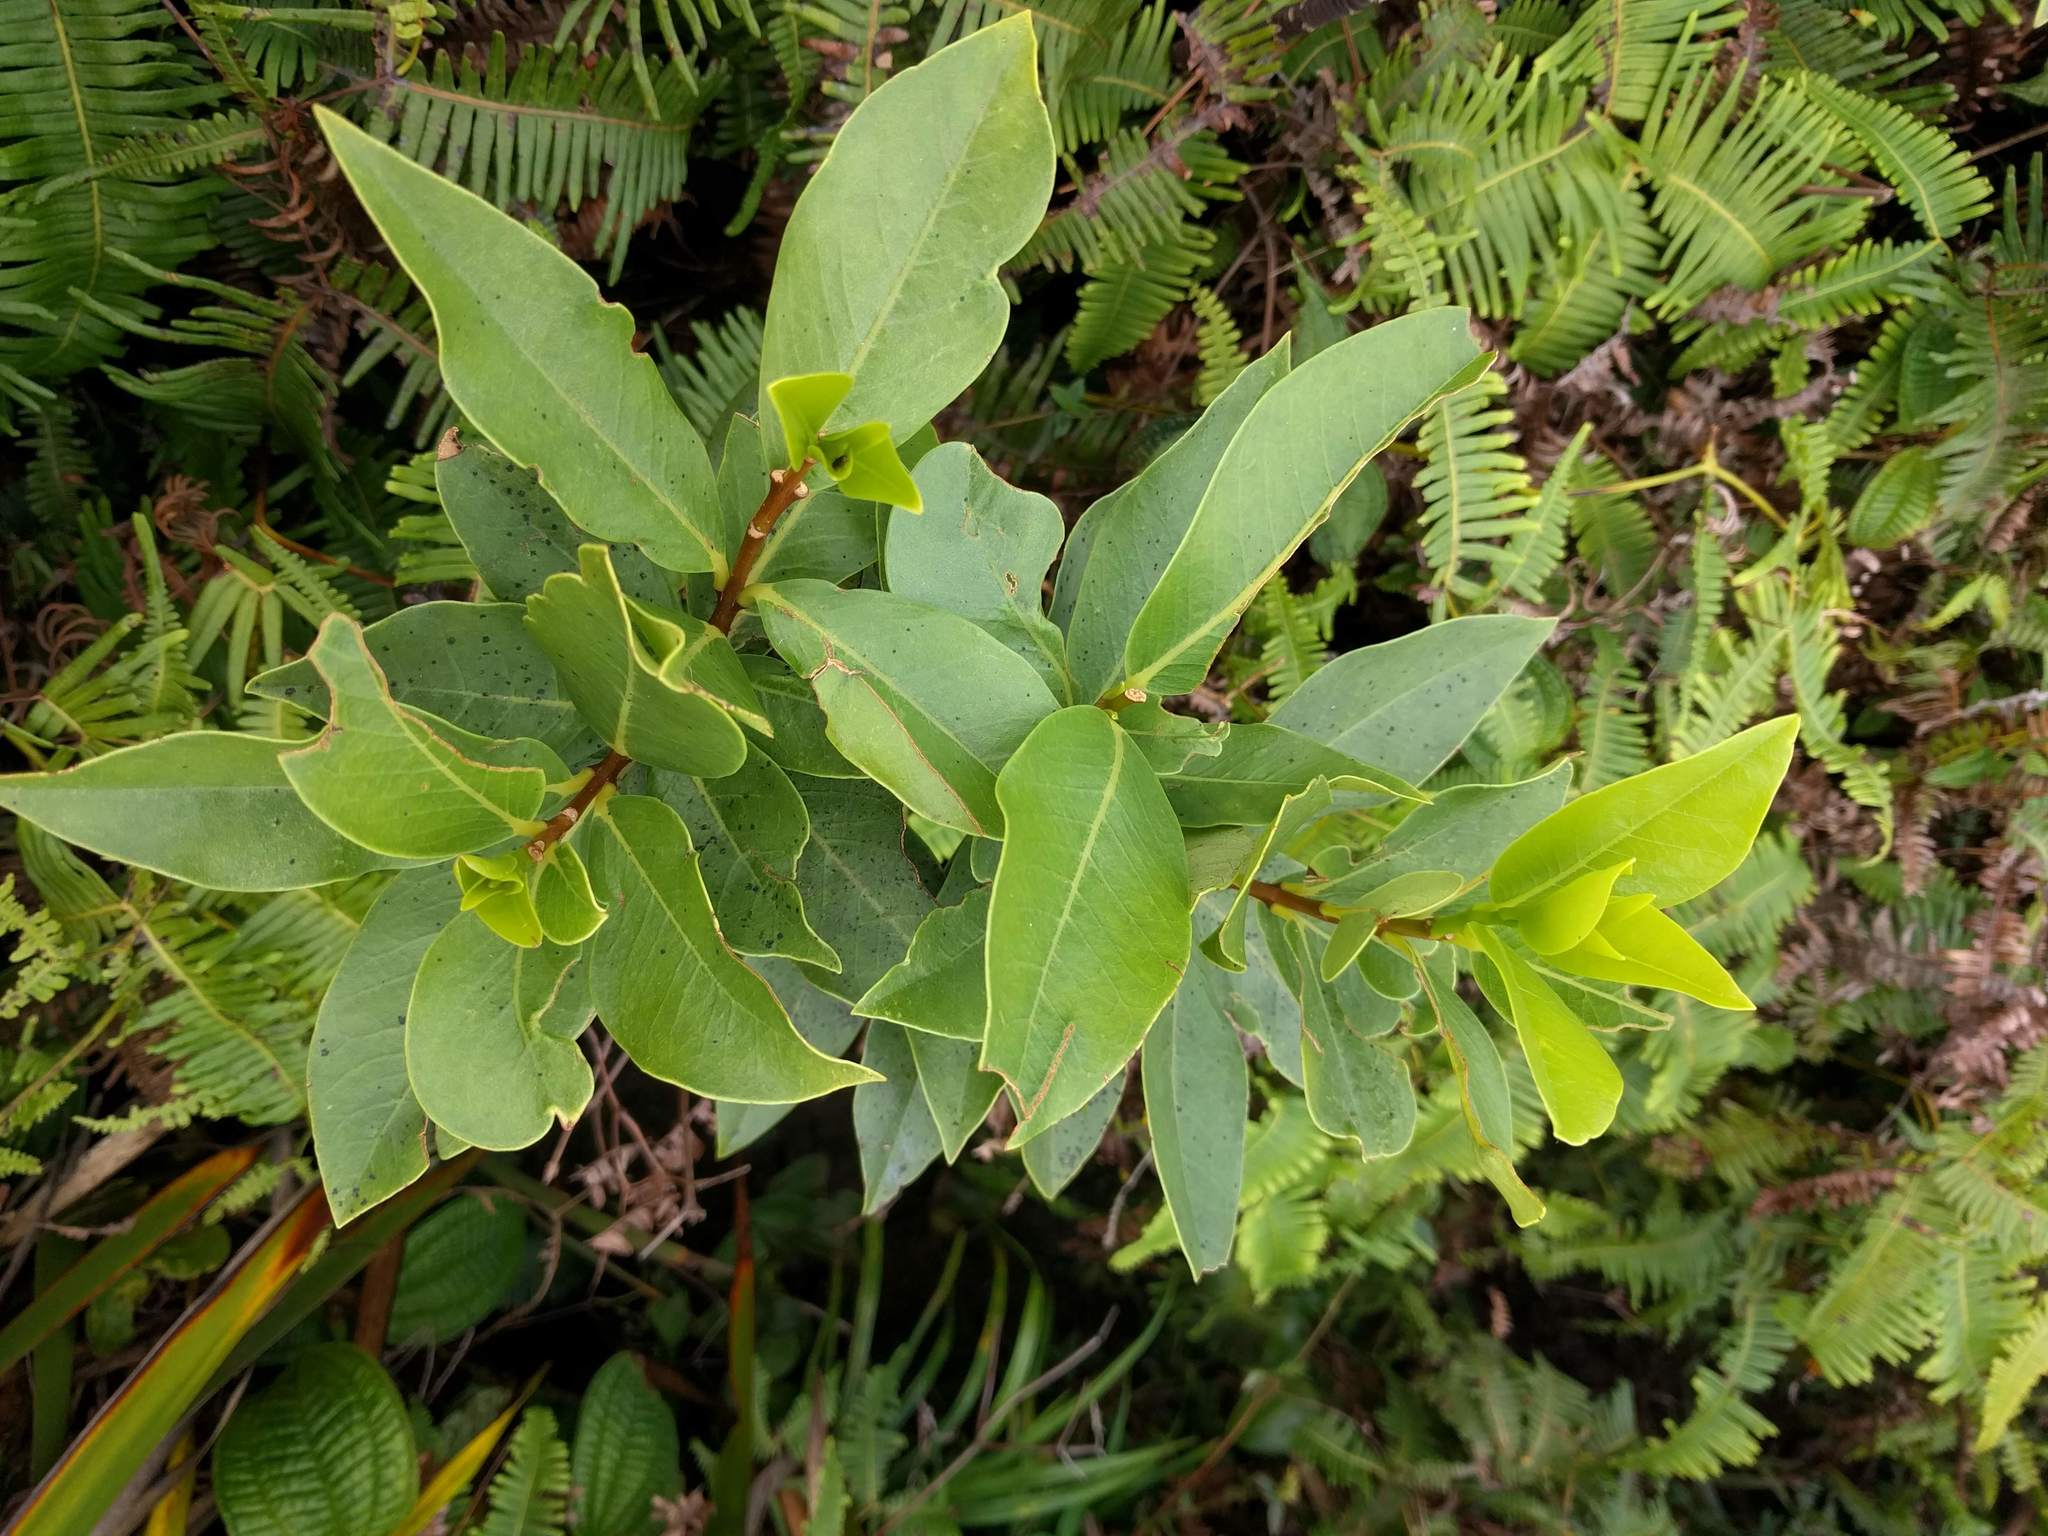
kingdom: Plantae
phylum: Tracheophyta
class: Magnoliopsida
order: Malvales
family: Thymelaeaceae
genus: Wikstroemia
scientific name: Wikstroemia oahuensis
